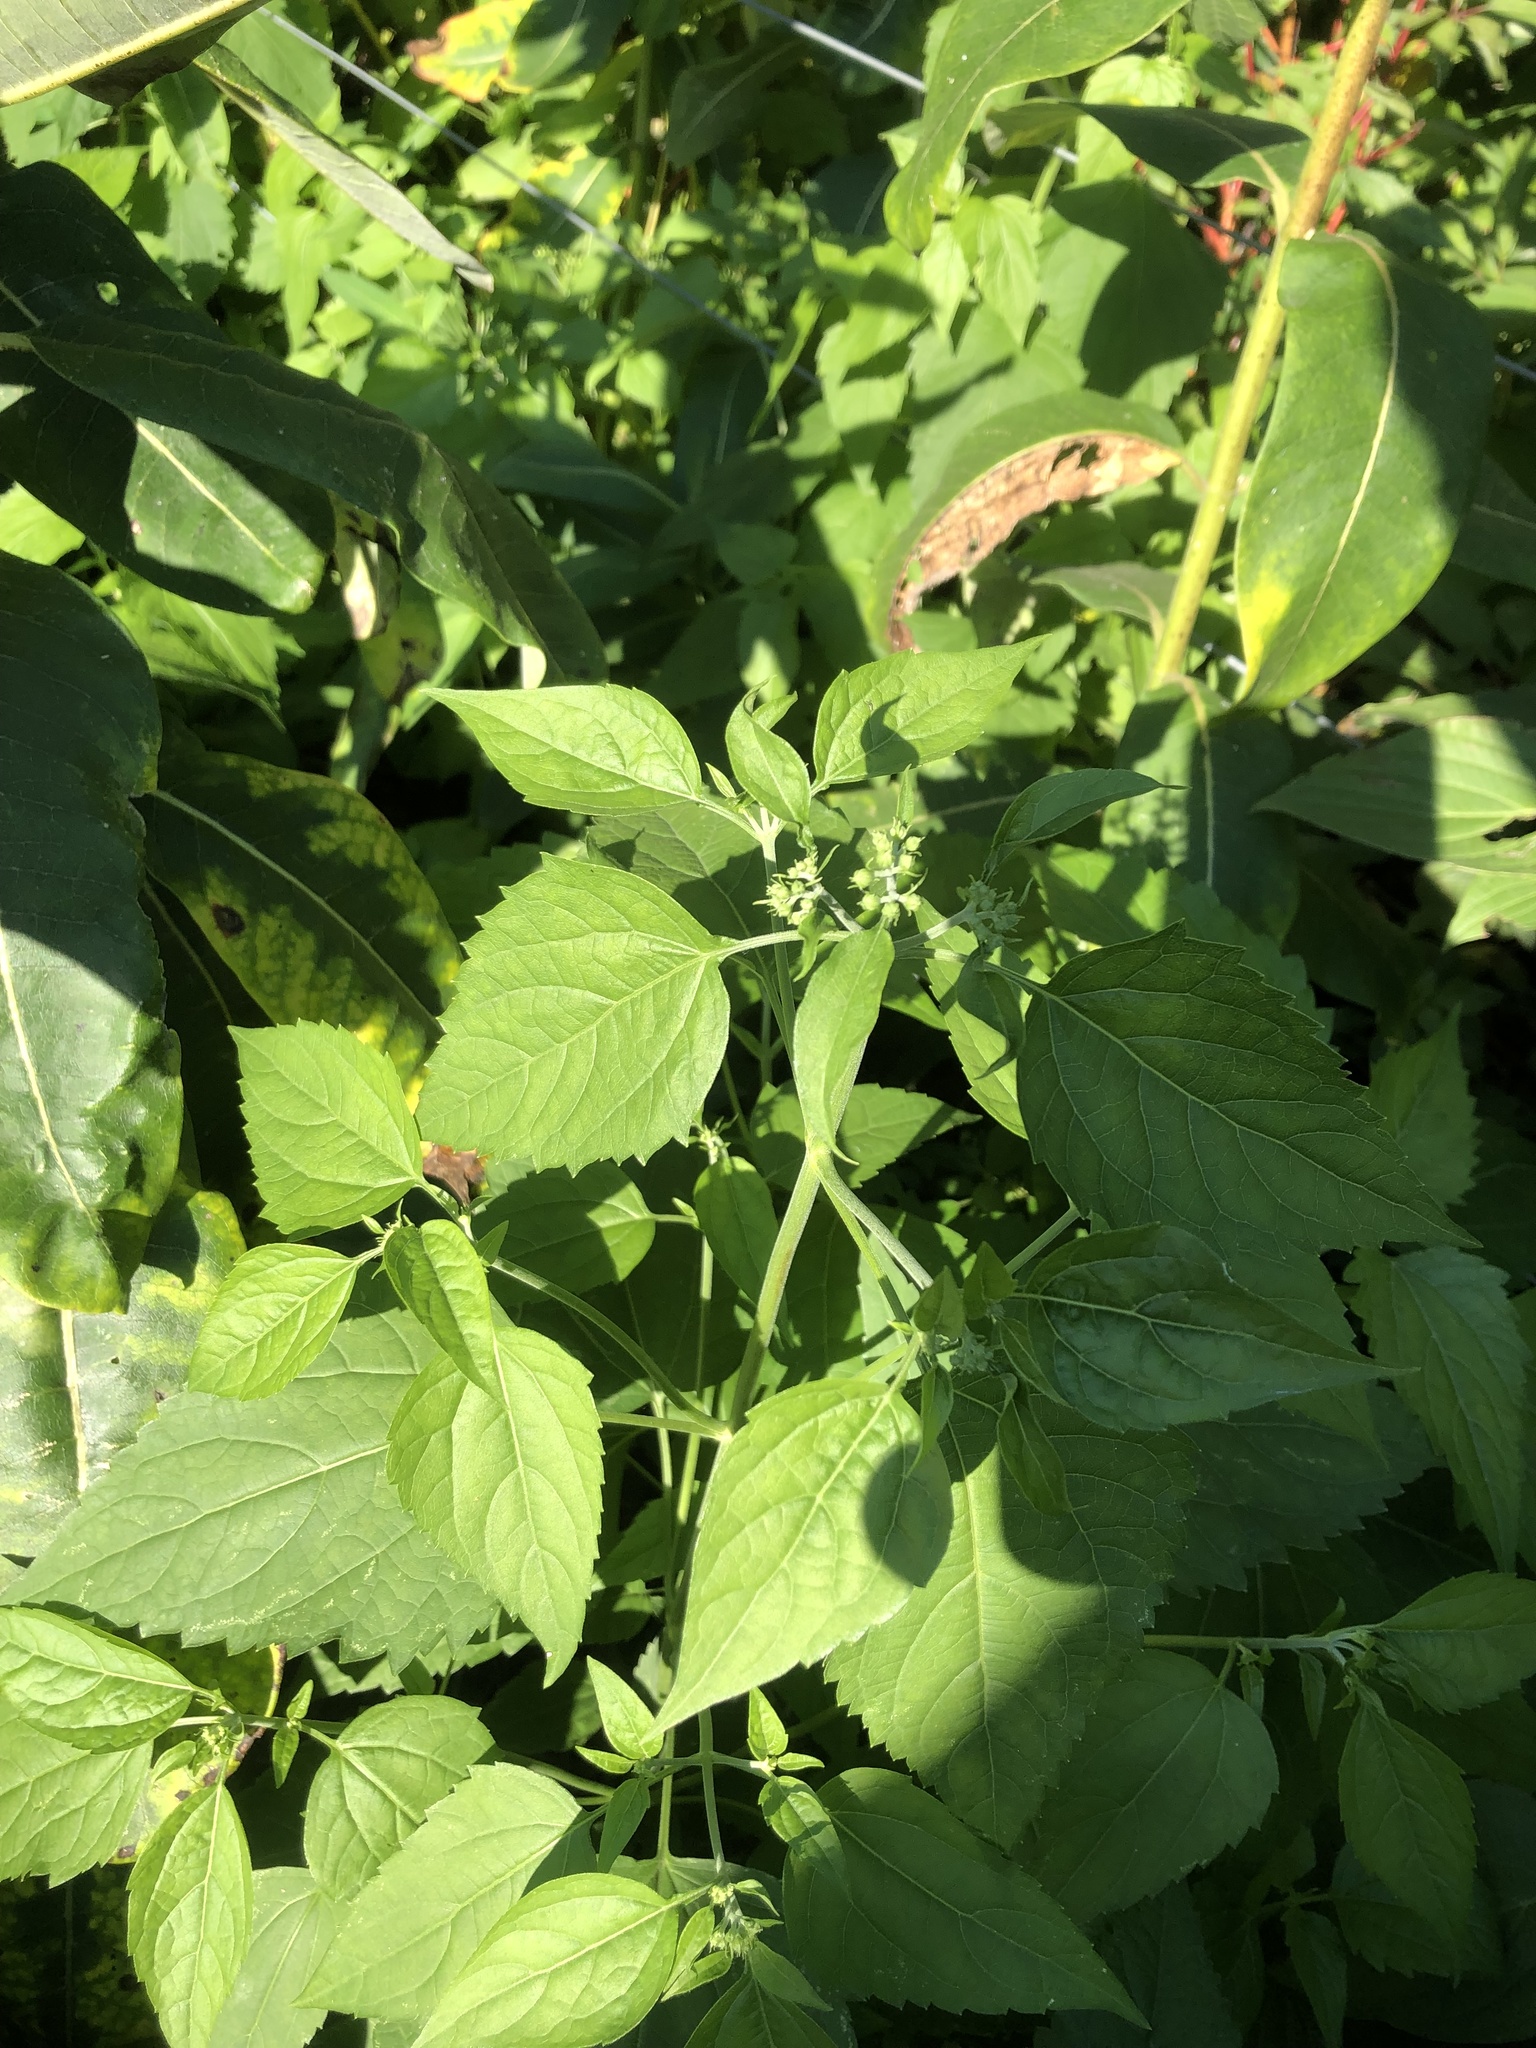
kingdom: Plantae
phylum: Tracheophyta
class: Magnoliopsida
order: Asterales
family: Asteraceae
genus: Ageratina
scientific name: Ageratina altissima
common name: White snakeroot
